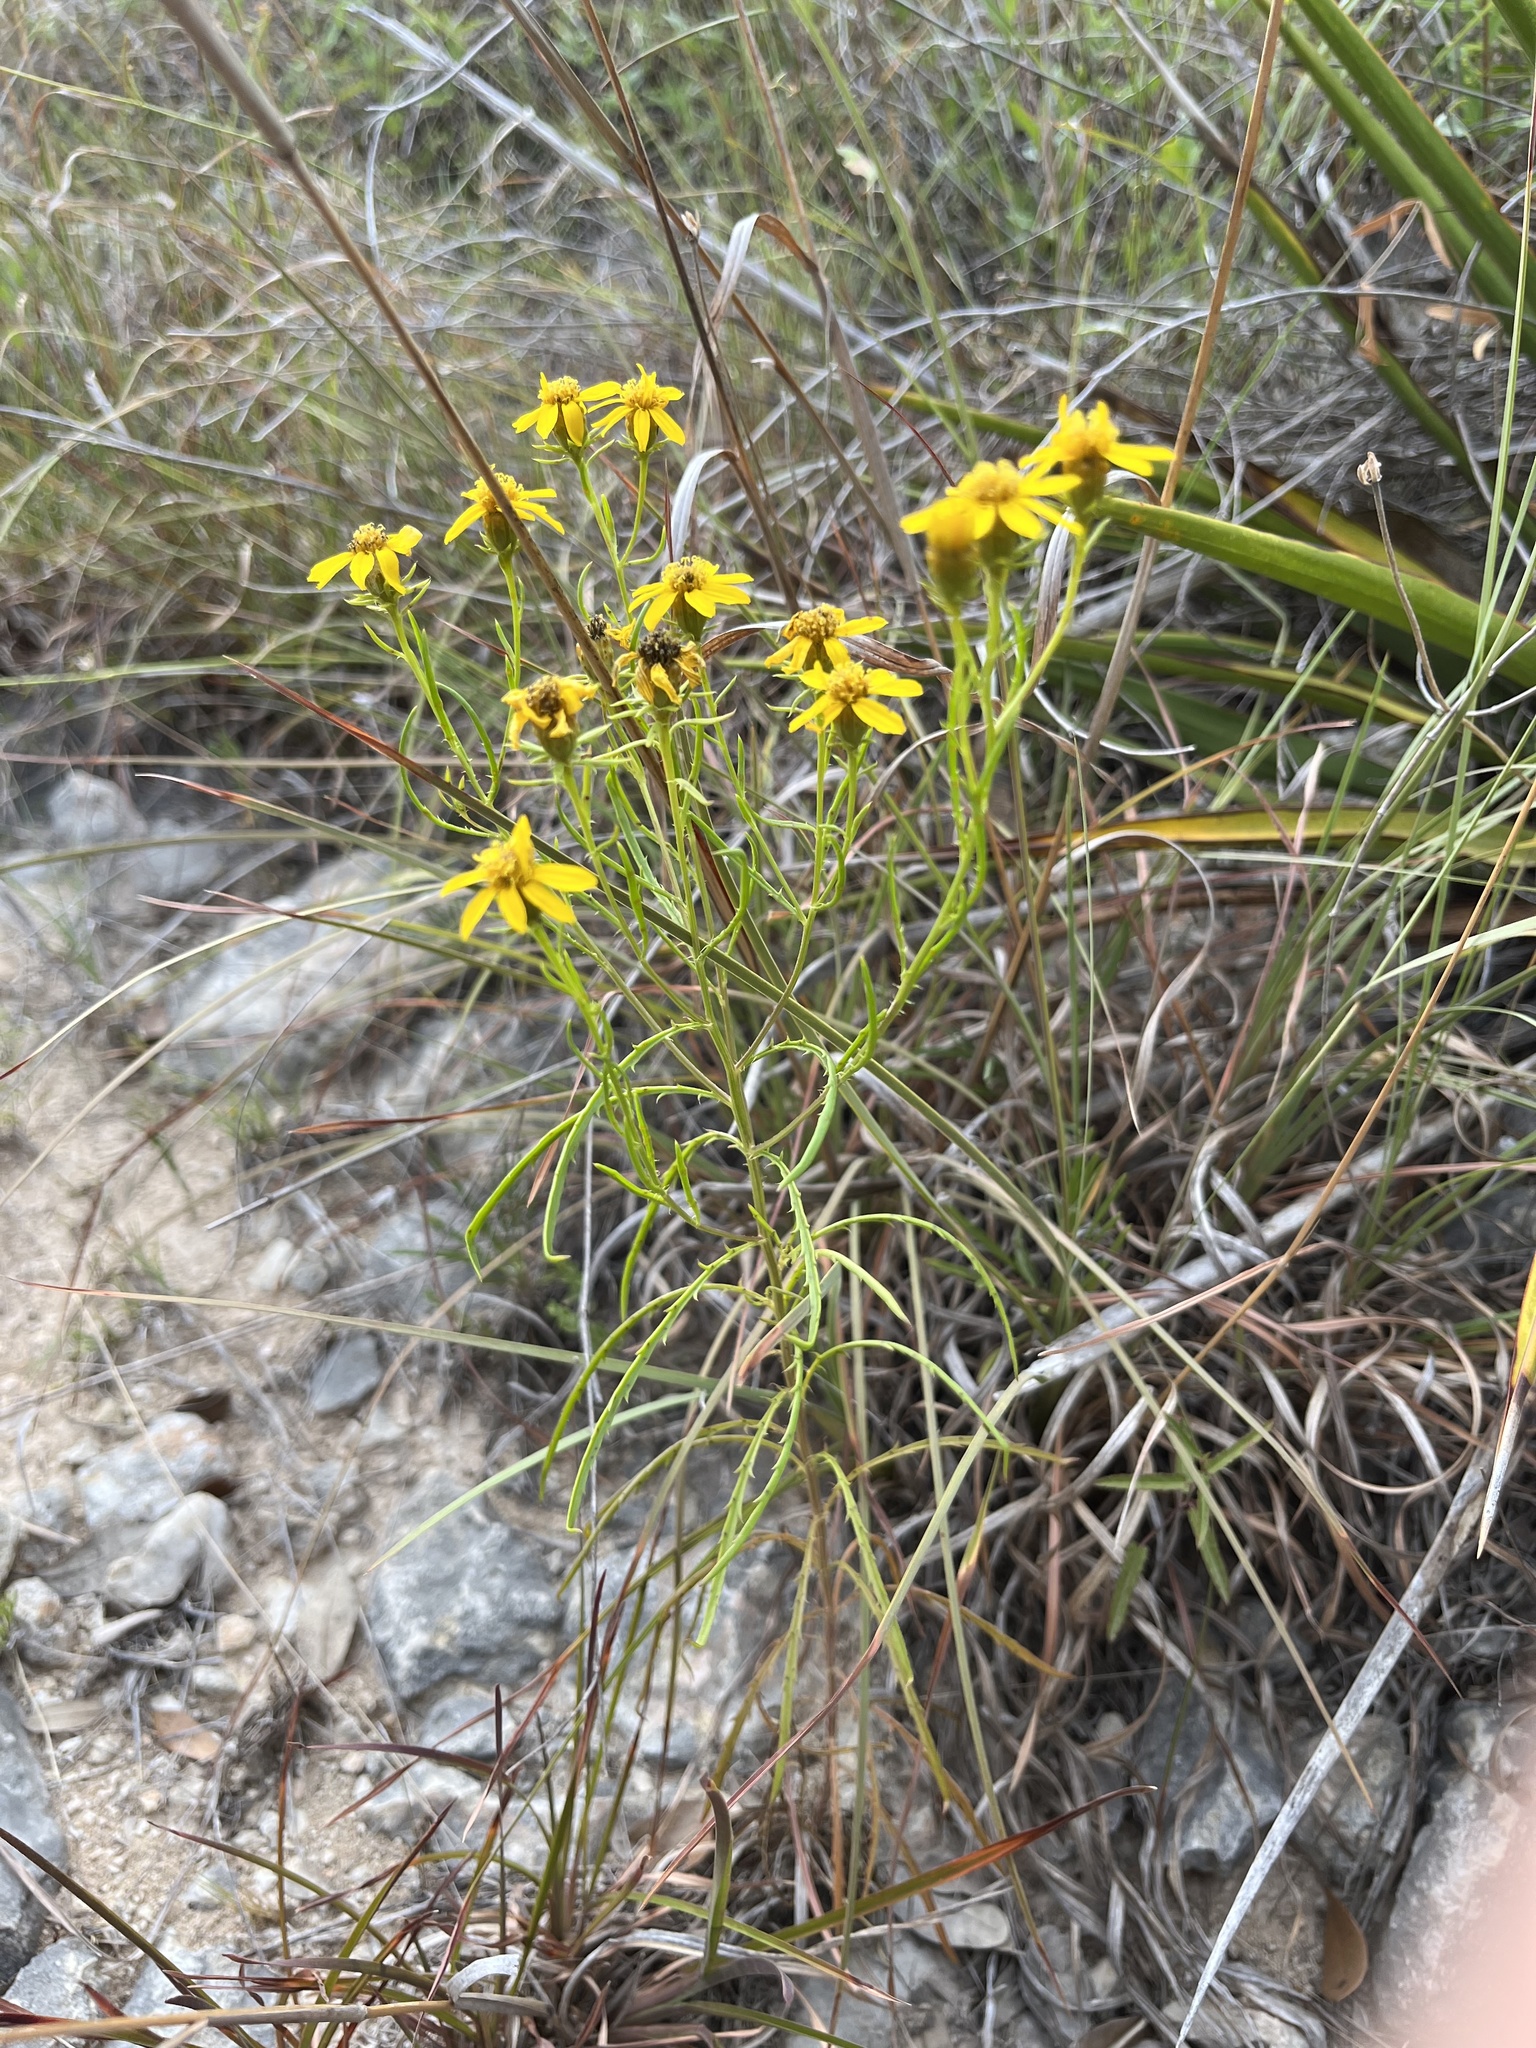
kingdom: Plantae
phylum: Tracheophyta
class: Magnoliopsida
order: Asterales
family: Asteraceae
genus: Dysodiopsis
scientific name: Dysodiopsis tagetoides
